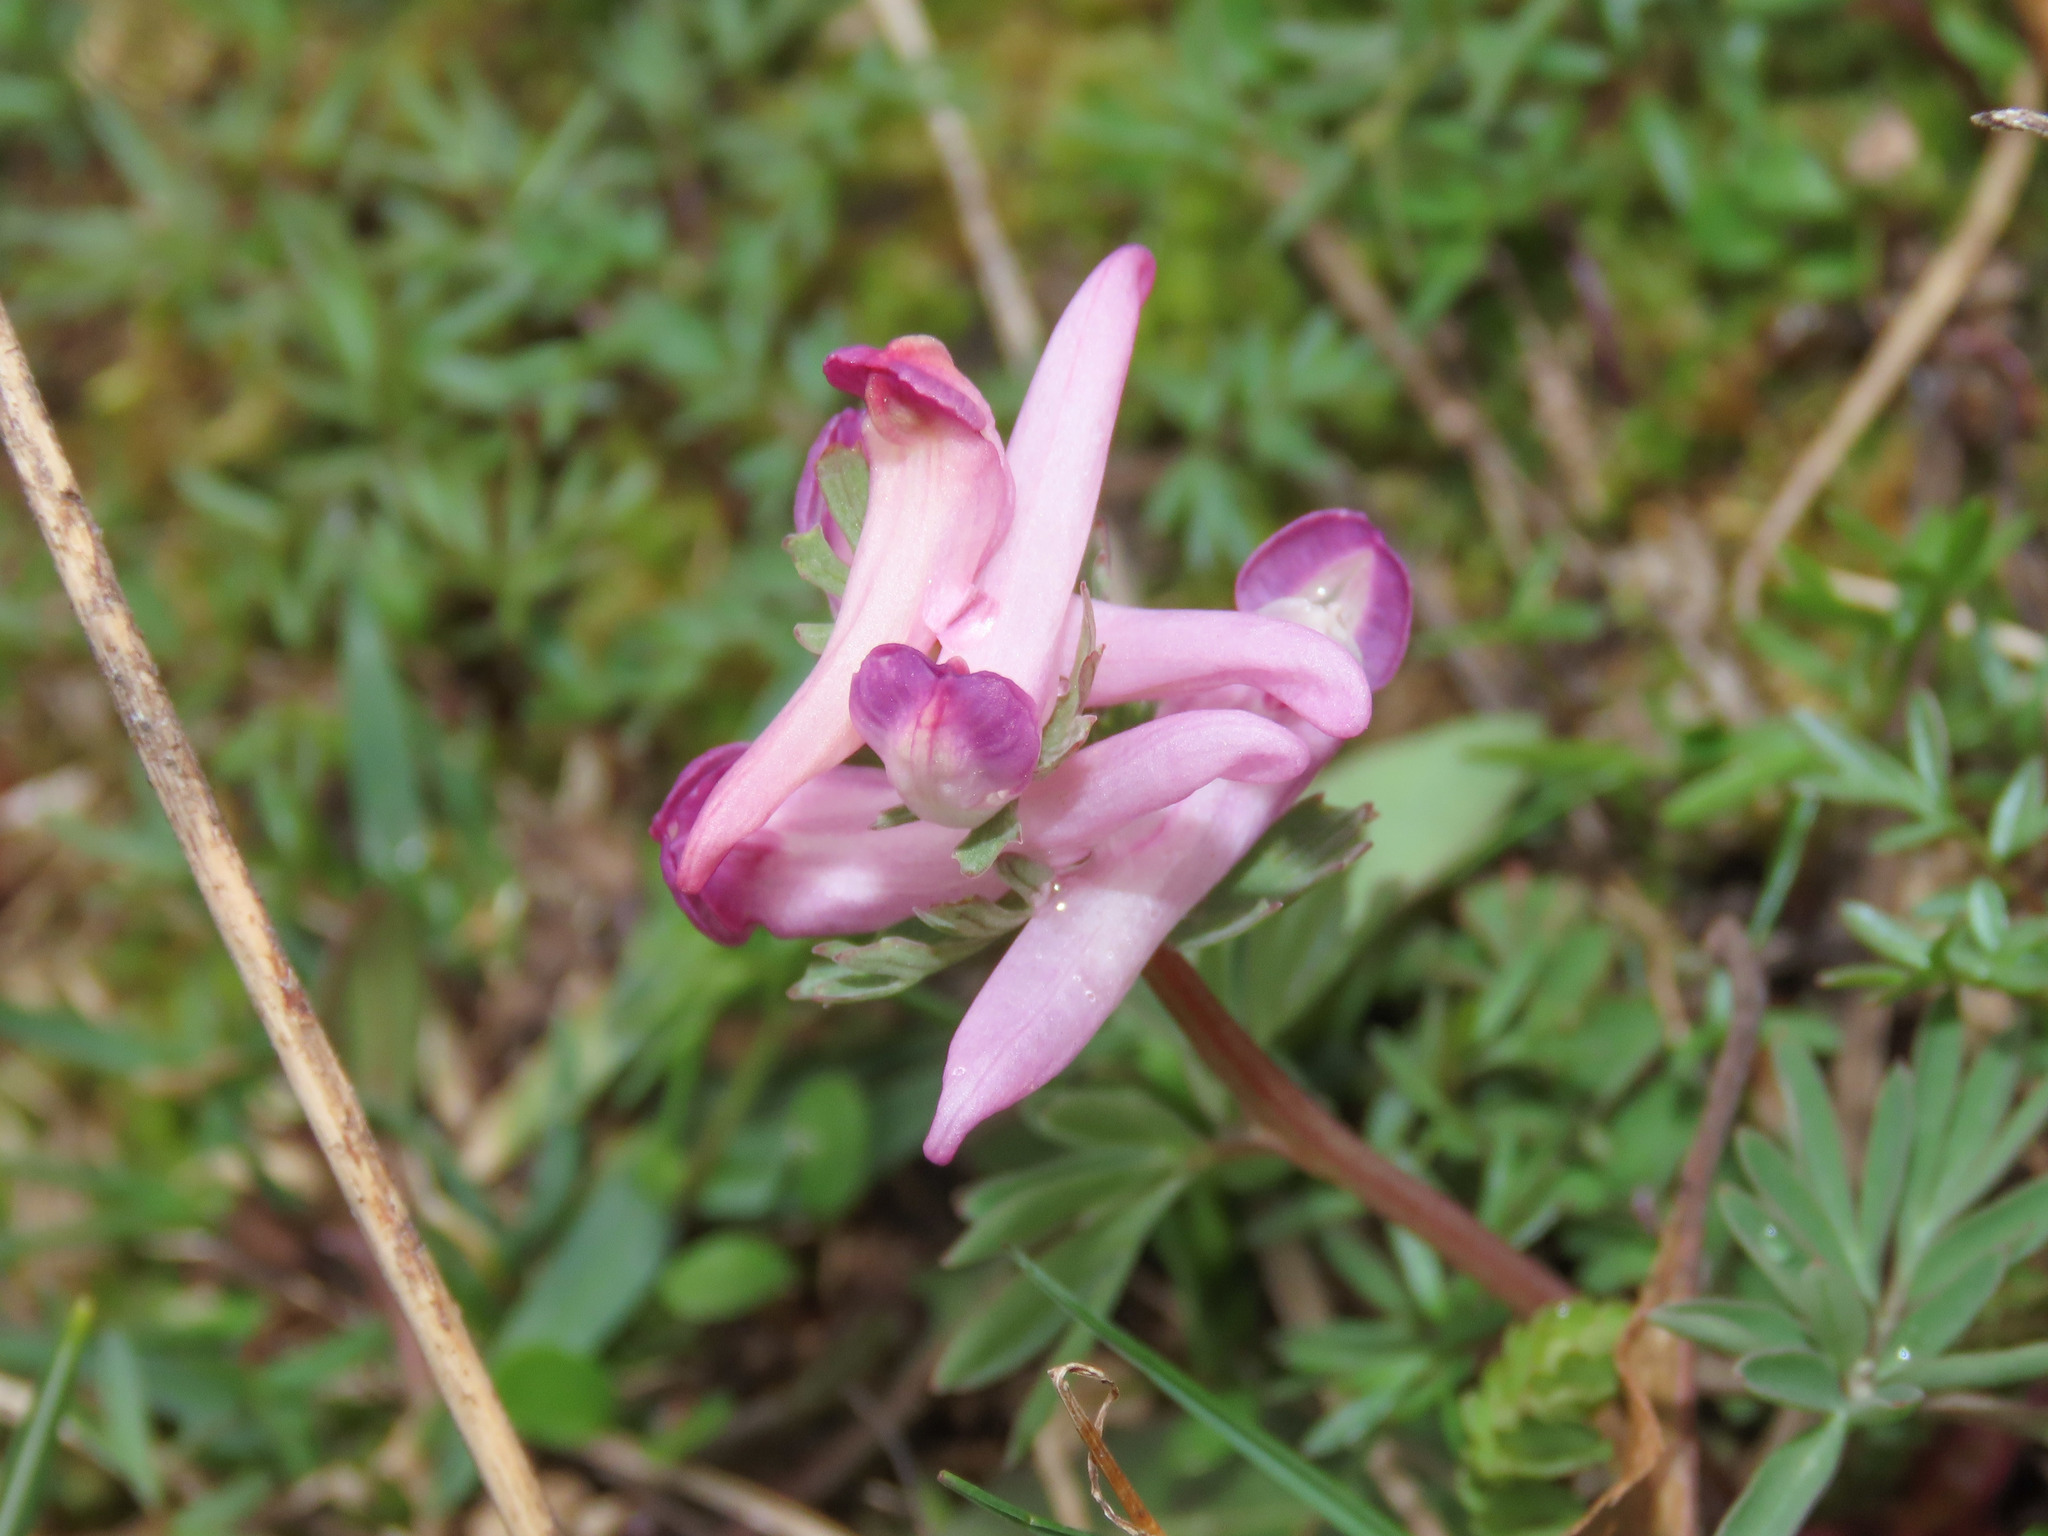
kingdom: Plantae
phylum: Tracheophyta
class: Magnoliopsida
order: Ranunculales
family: Papaveraceae
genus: Corydalis
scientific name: Corydalis densiflora
